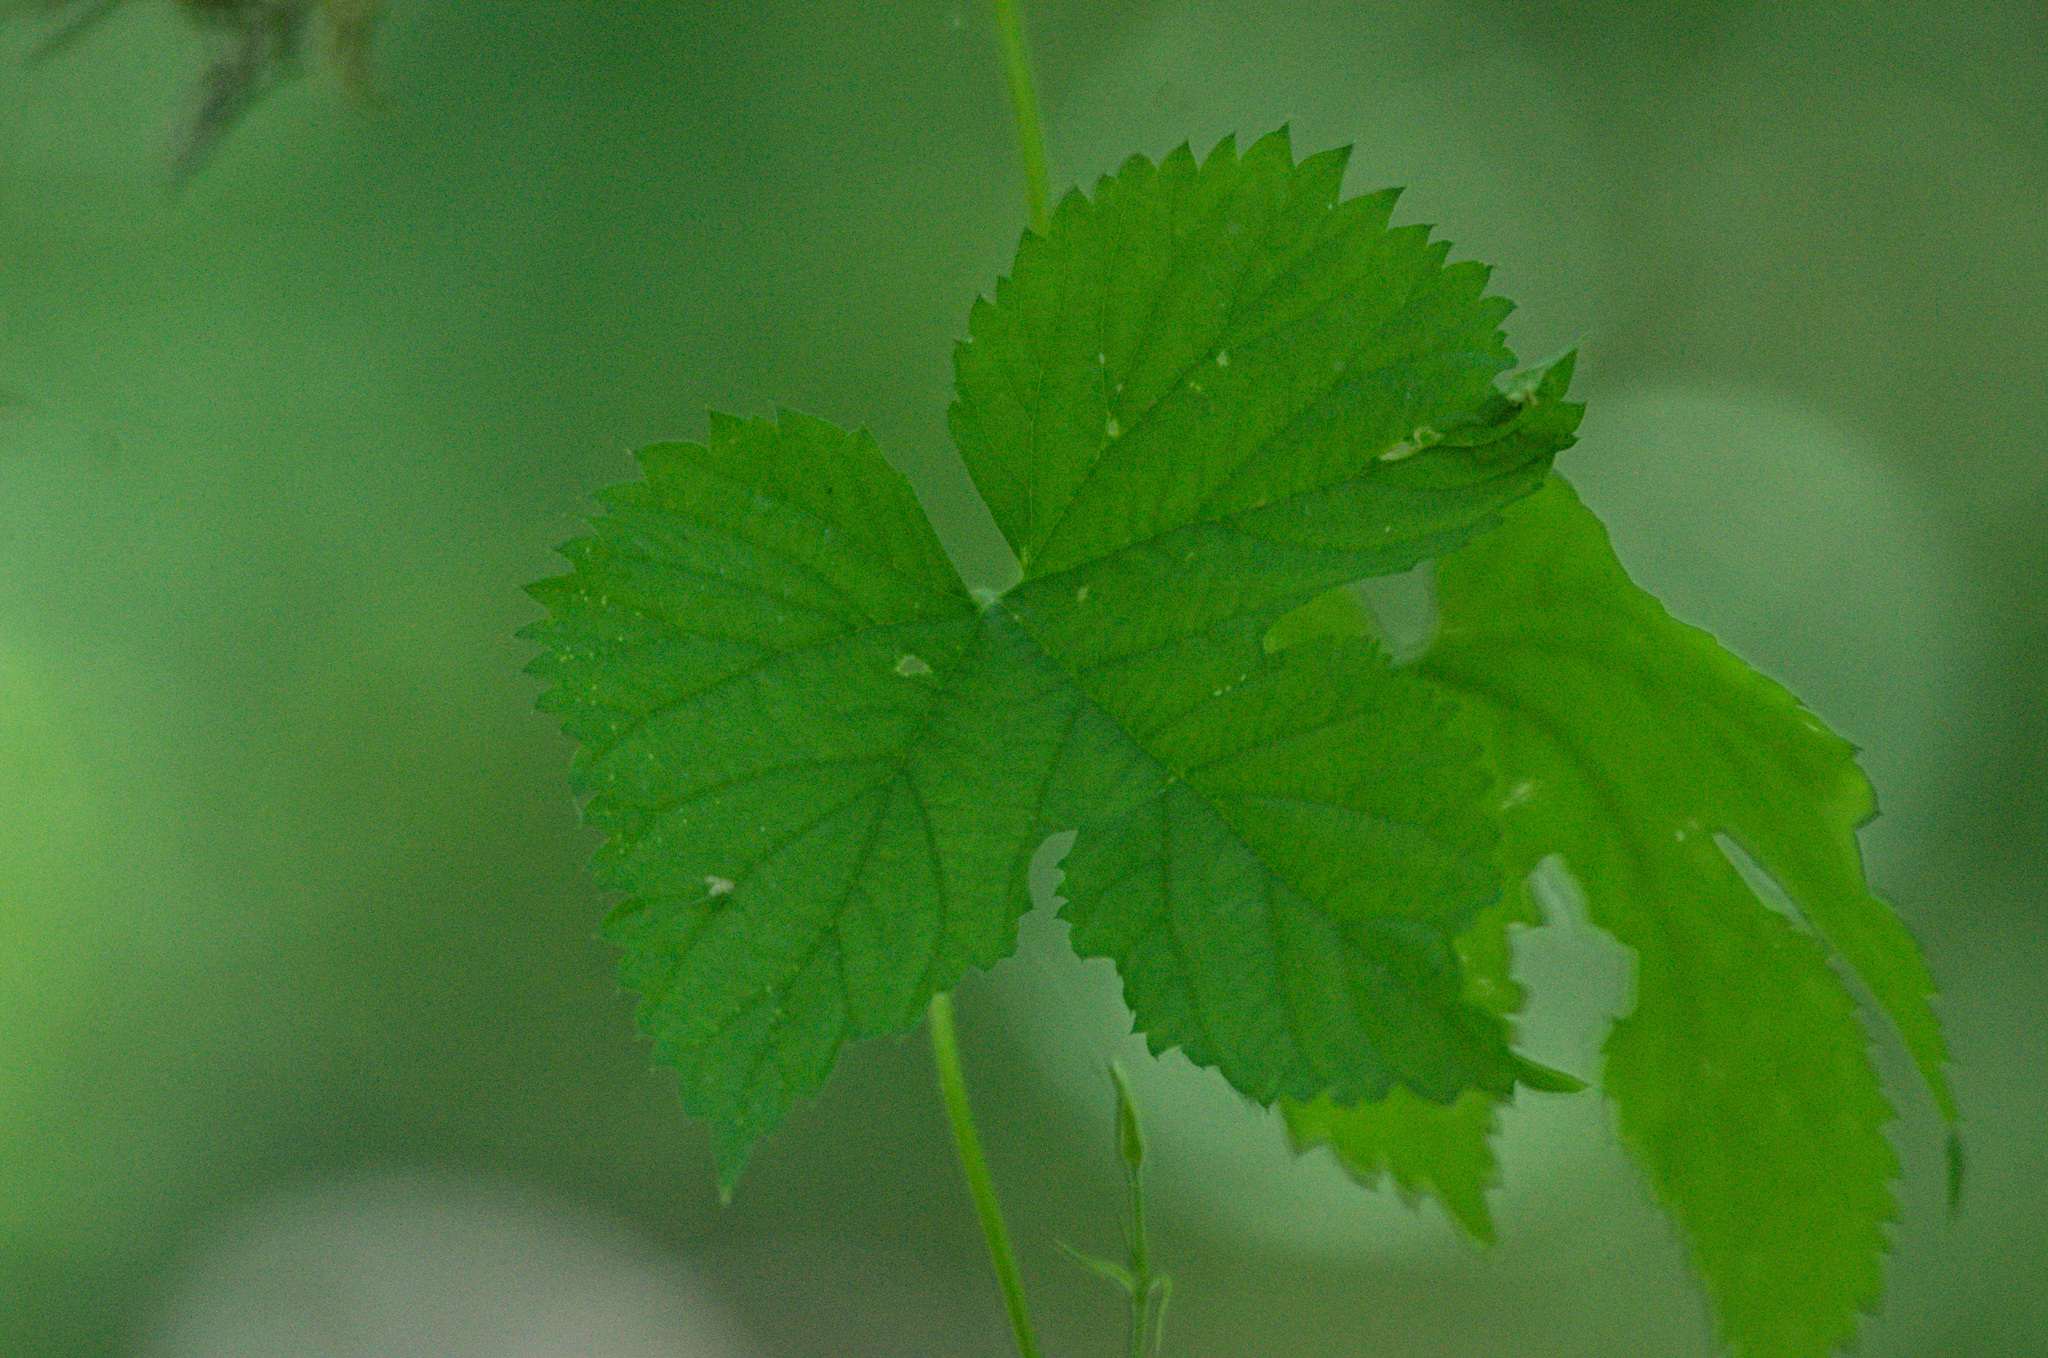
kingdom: Plantae
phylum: Tracheophyta
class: Magnoliopsida
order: Rosales
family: Cannabaceae
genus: Humulus
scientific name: Humulus lupulus
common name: Hop
